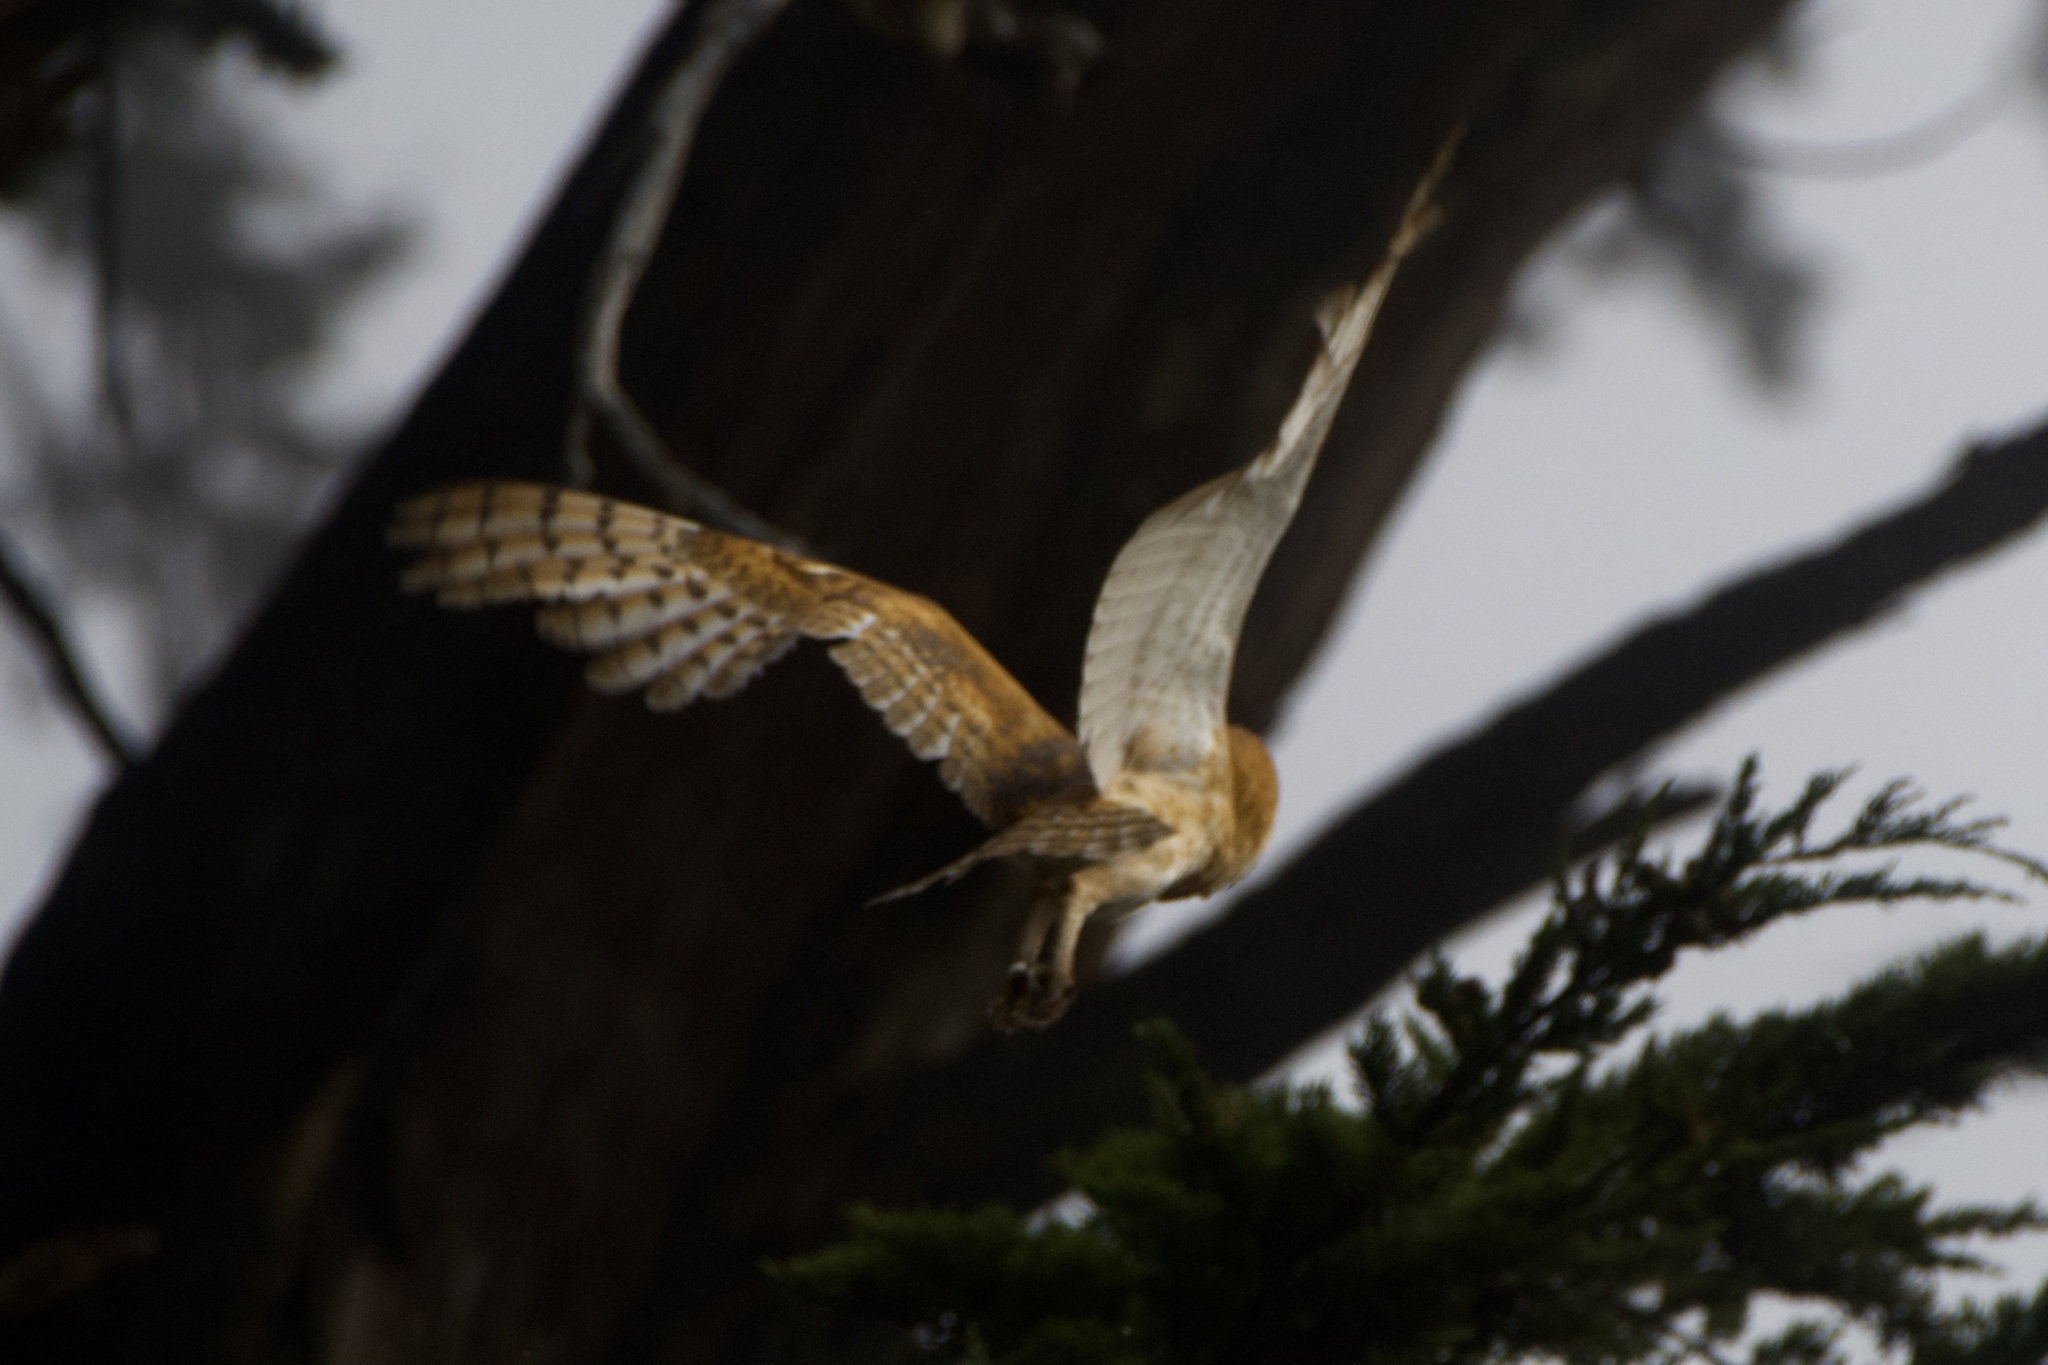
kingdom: Animalia
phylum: Chordata
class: Aves
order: Strigiformes
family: Tytonidae
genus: Tyto
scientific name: Tyto alba
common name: Barn owl
